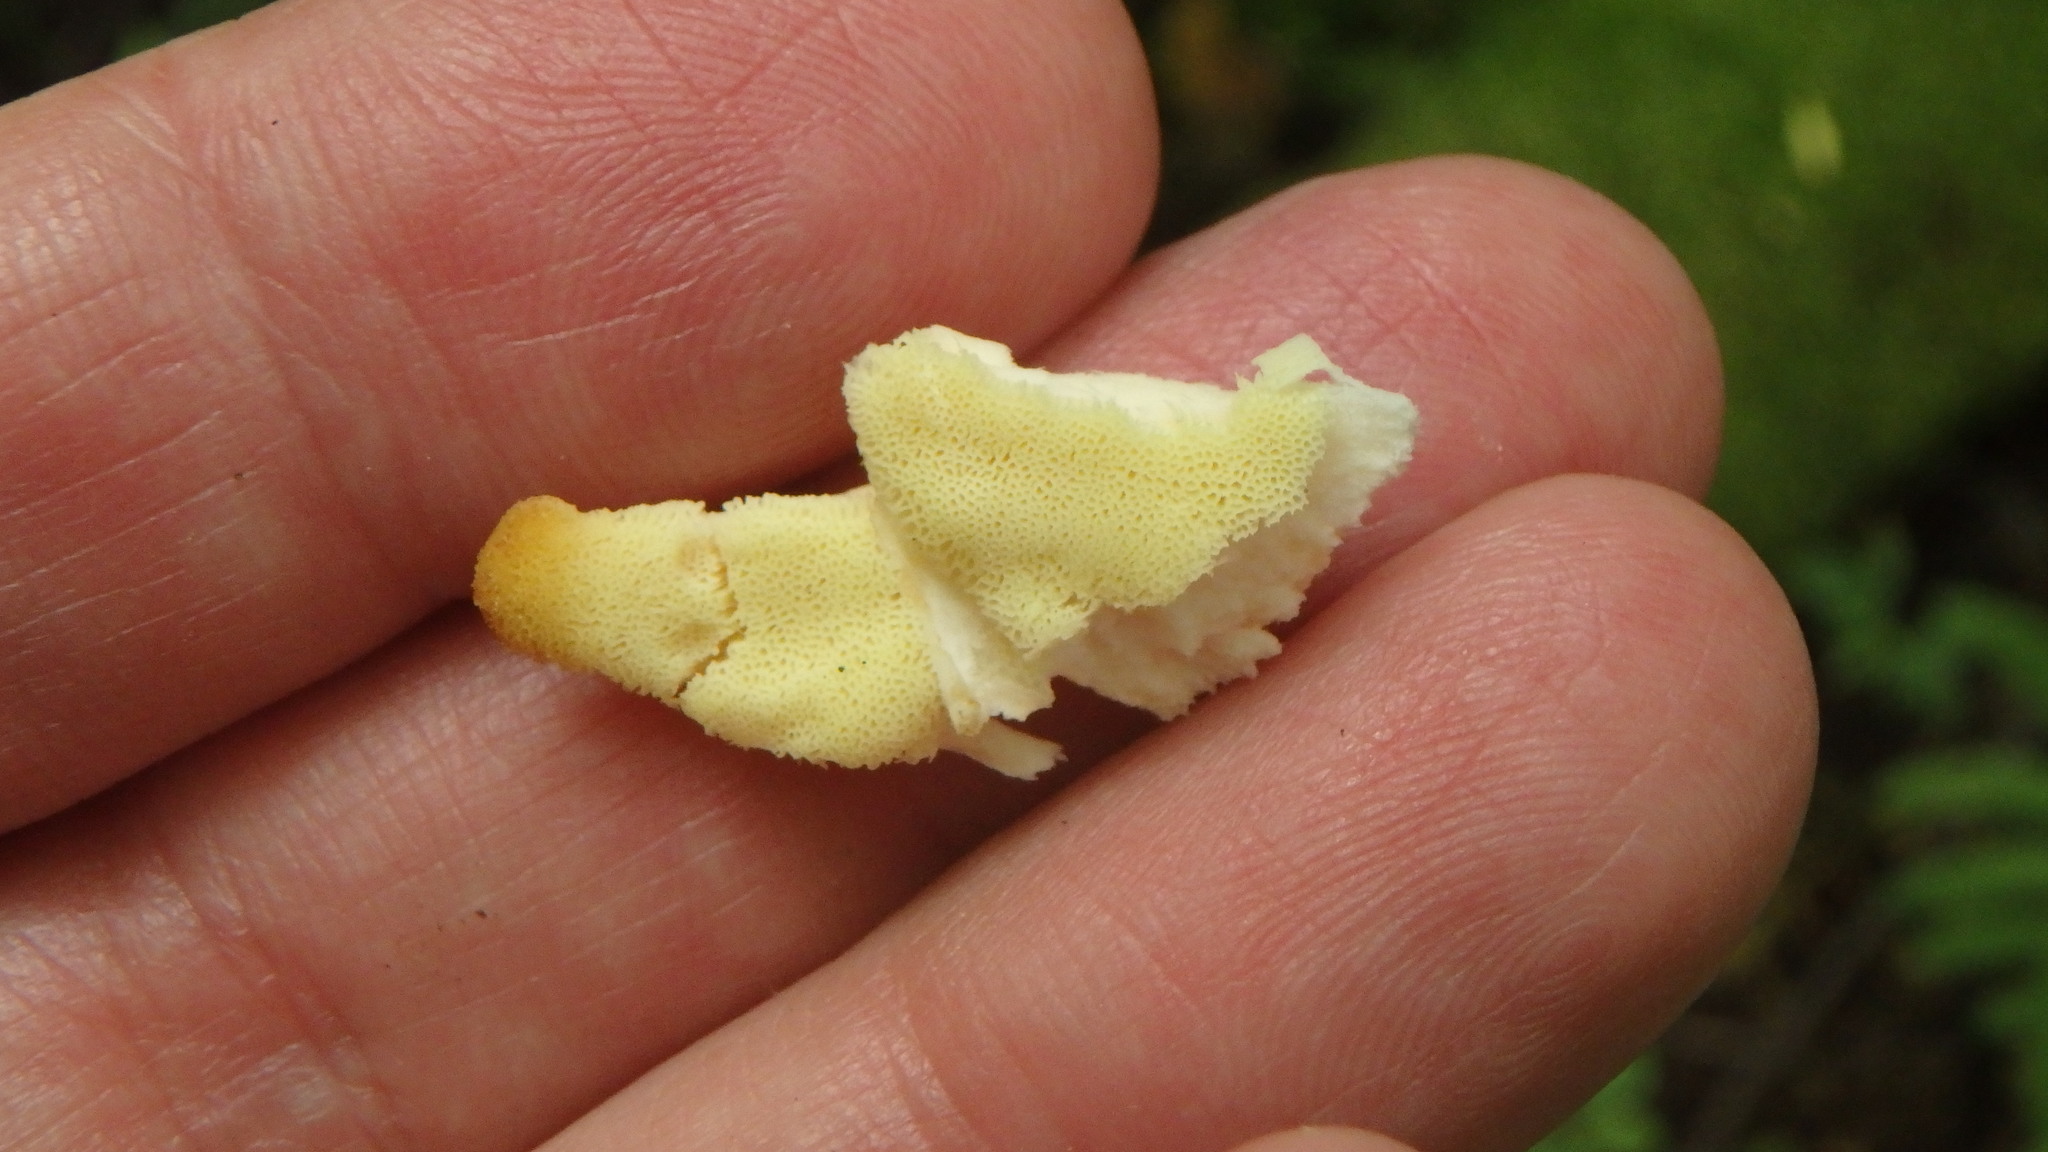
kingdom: Fungi
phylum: Basidiomycota
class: Agaricomycetes
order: Polyporales
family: Laetiporaceae
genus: Laetiporus
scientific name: Laetiporus sulphureus
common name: Chicken of the woods
